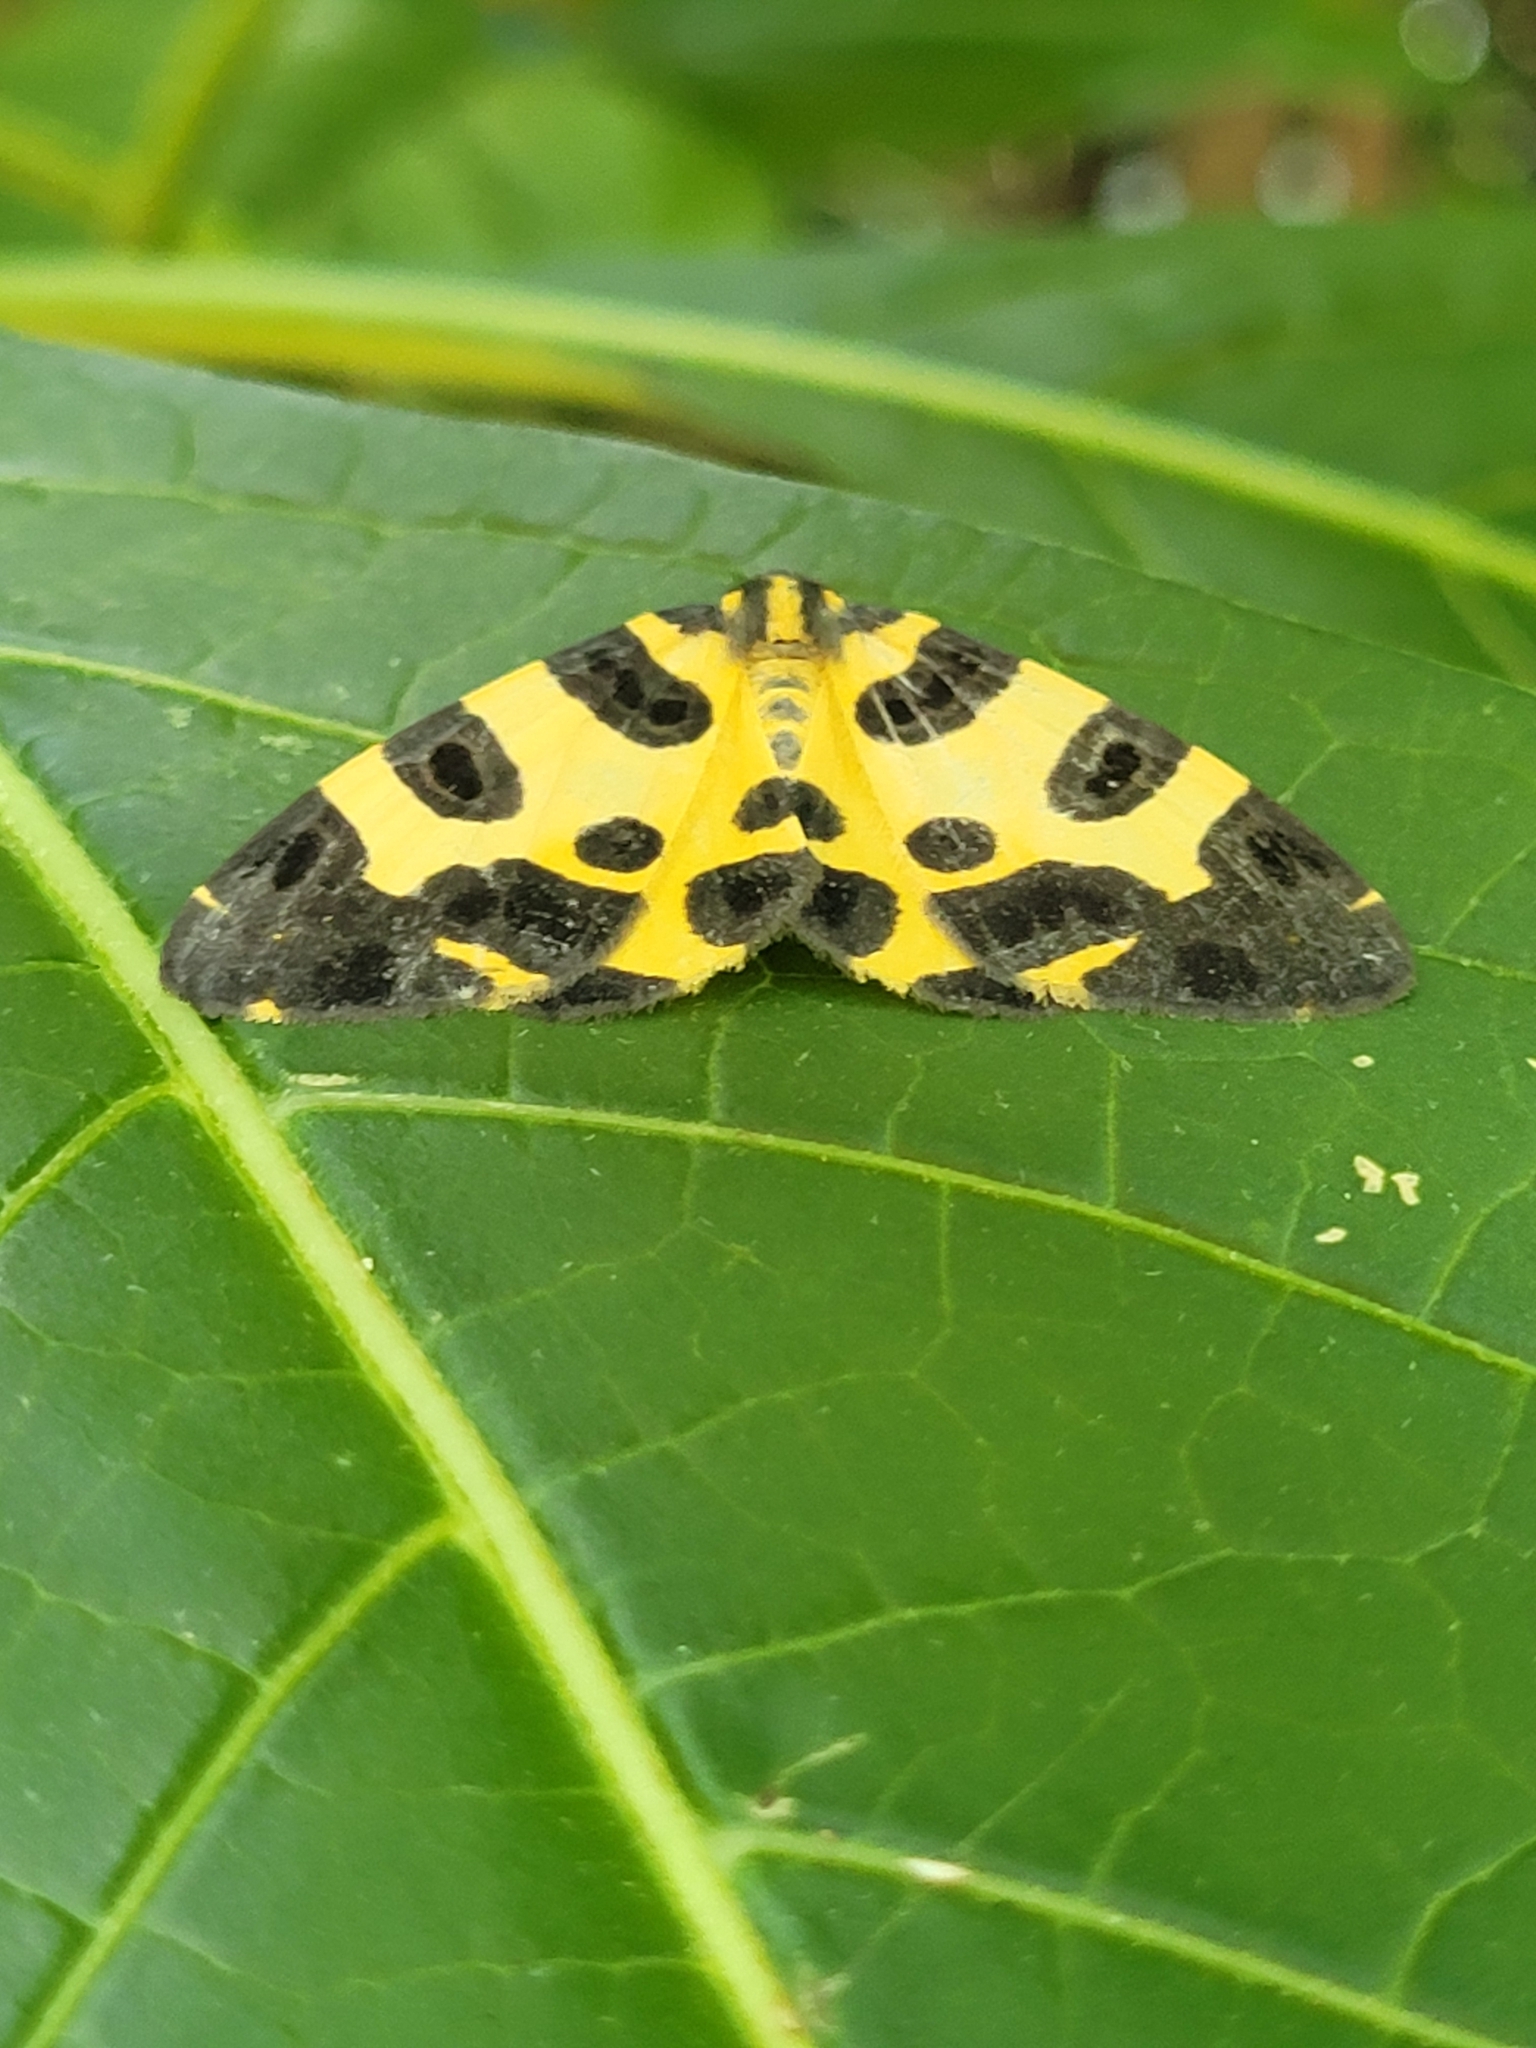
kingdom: Animalia
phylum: Arthropoda
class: Insecta
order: Lepidoptera
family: Geometridae
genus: Pantherodes
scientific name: Pantherodes pardalaria
